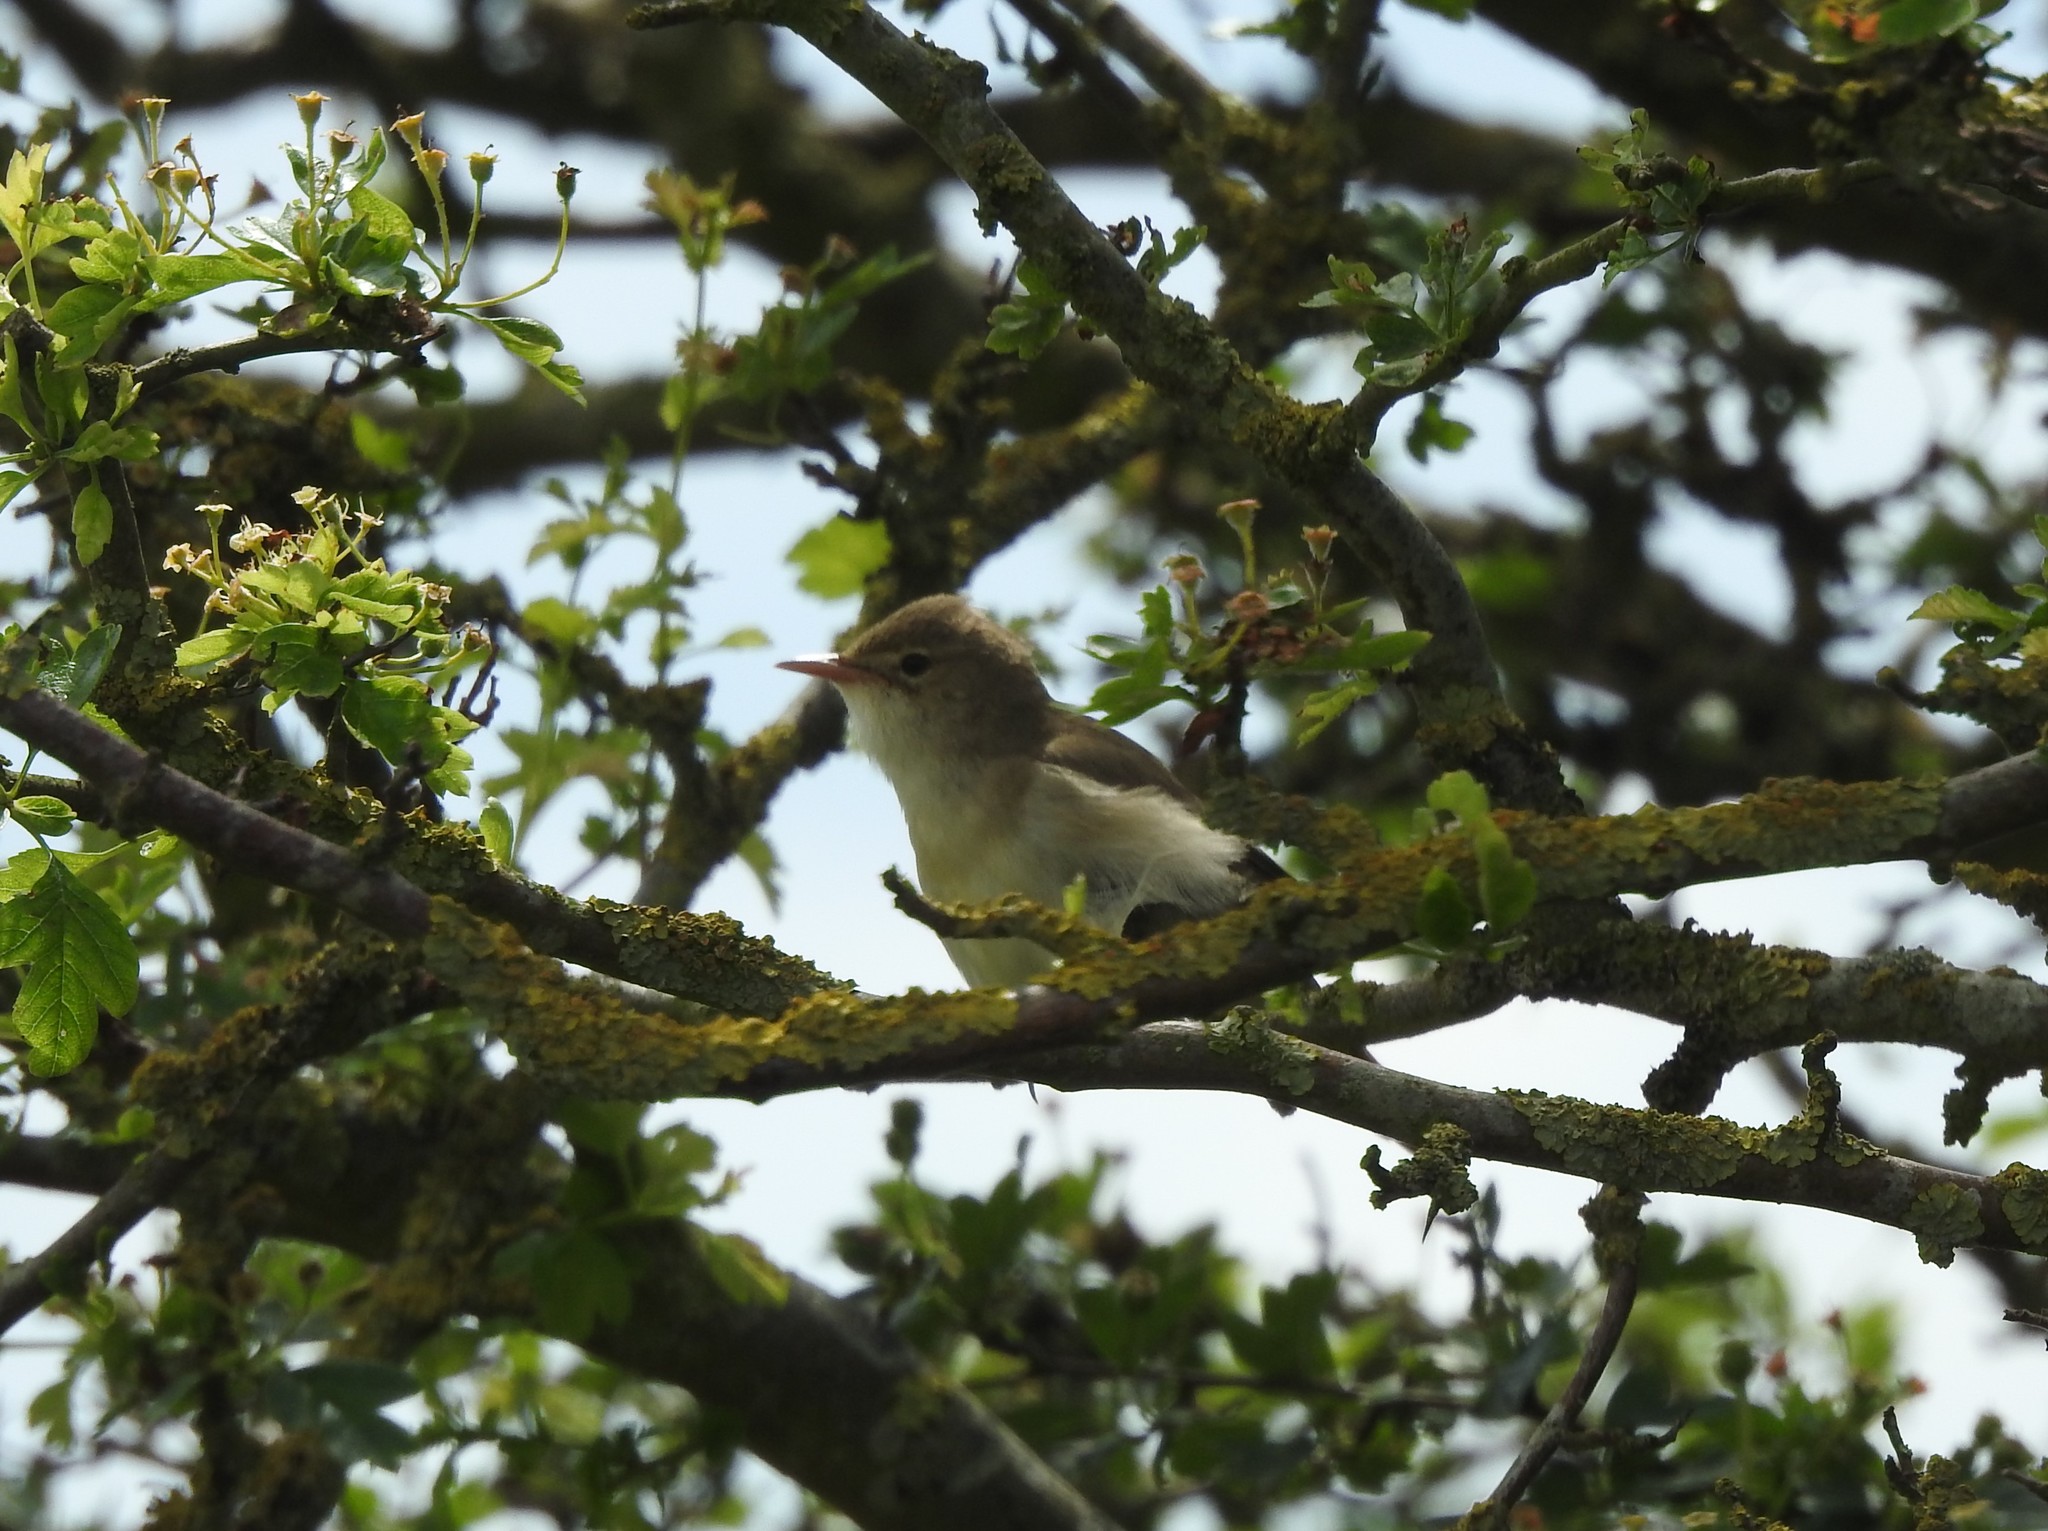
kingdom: Animalia
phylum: Chordata
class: Aves
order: Passeriformes
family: Acrocephalidae
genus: Hippolais
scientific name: Hippolais icterina
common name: Icterine warbler
